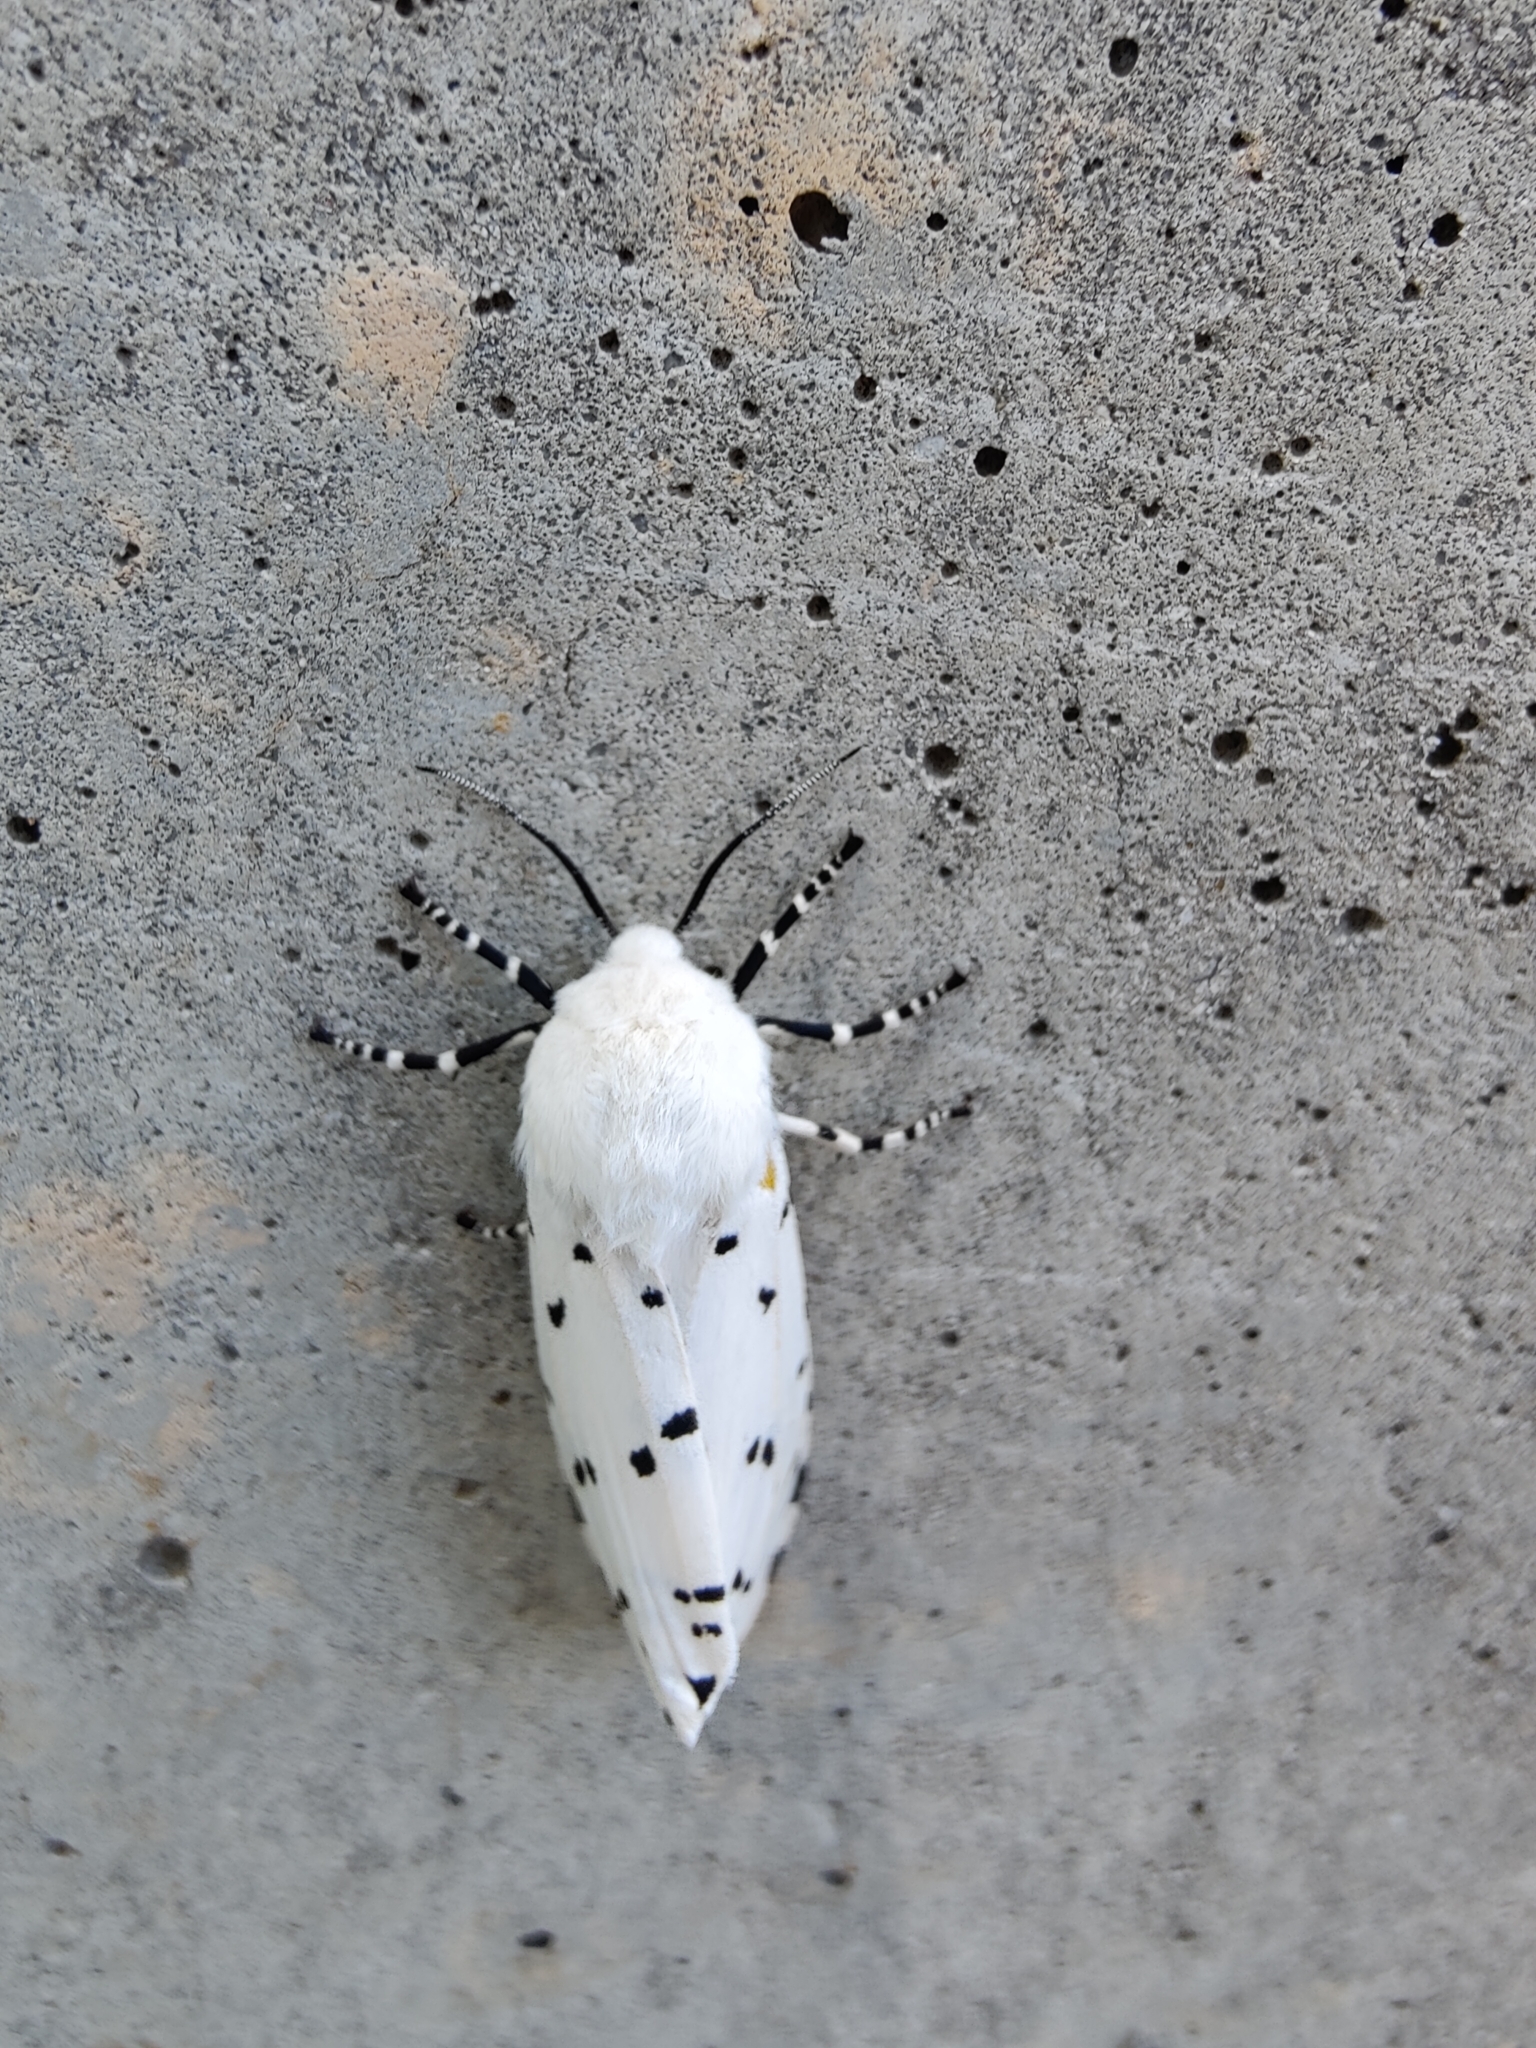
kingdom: Animalia
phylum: Arthropoda
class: Insecta
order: Lepidoptera
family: Erebidae
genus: Estigmene
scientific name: Estigmene acrea
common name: Salt marsh moth
